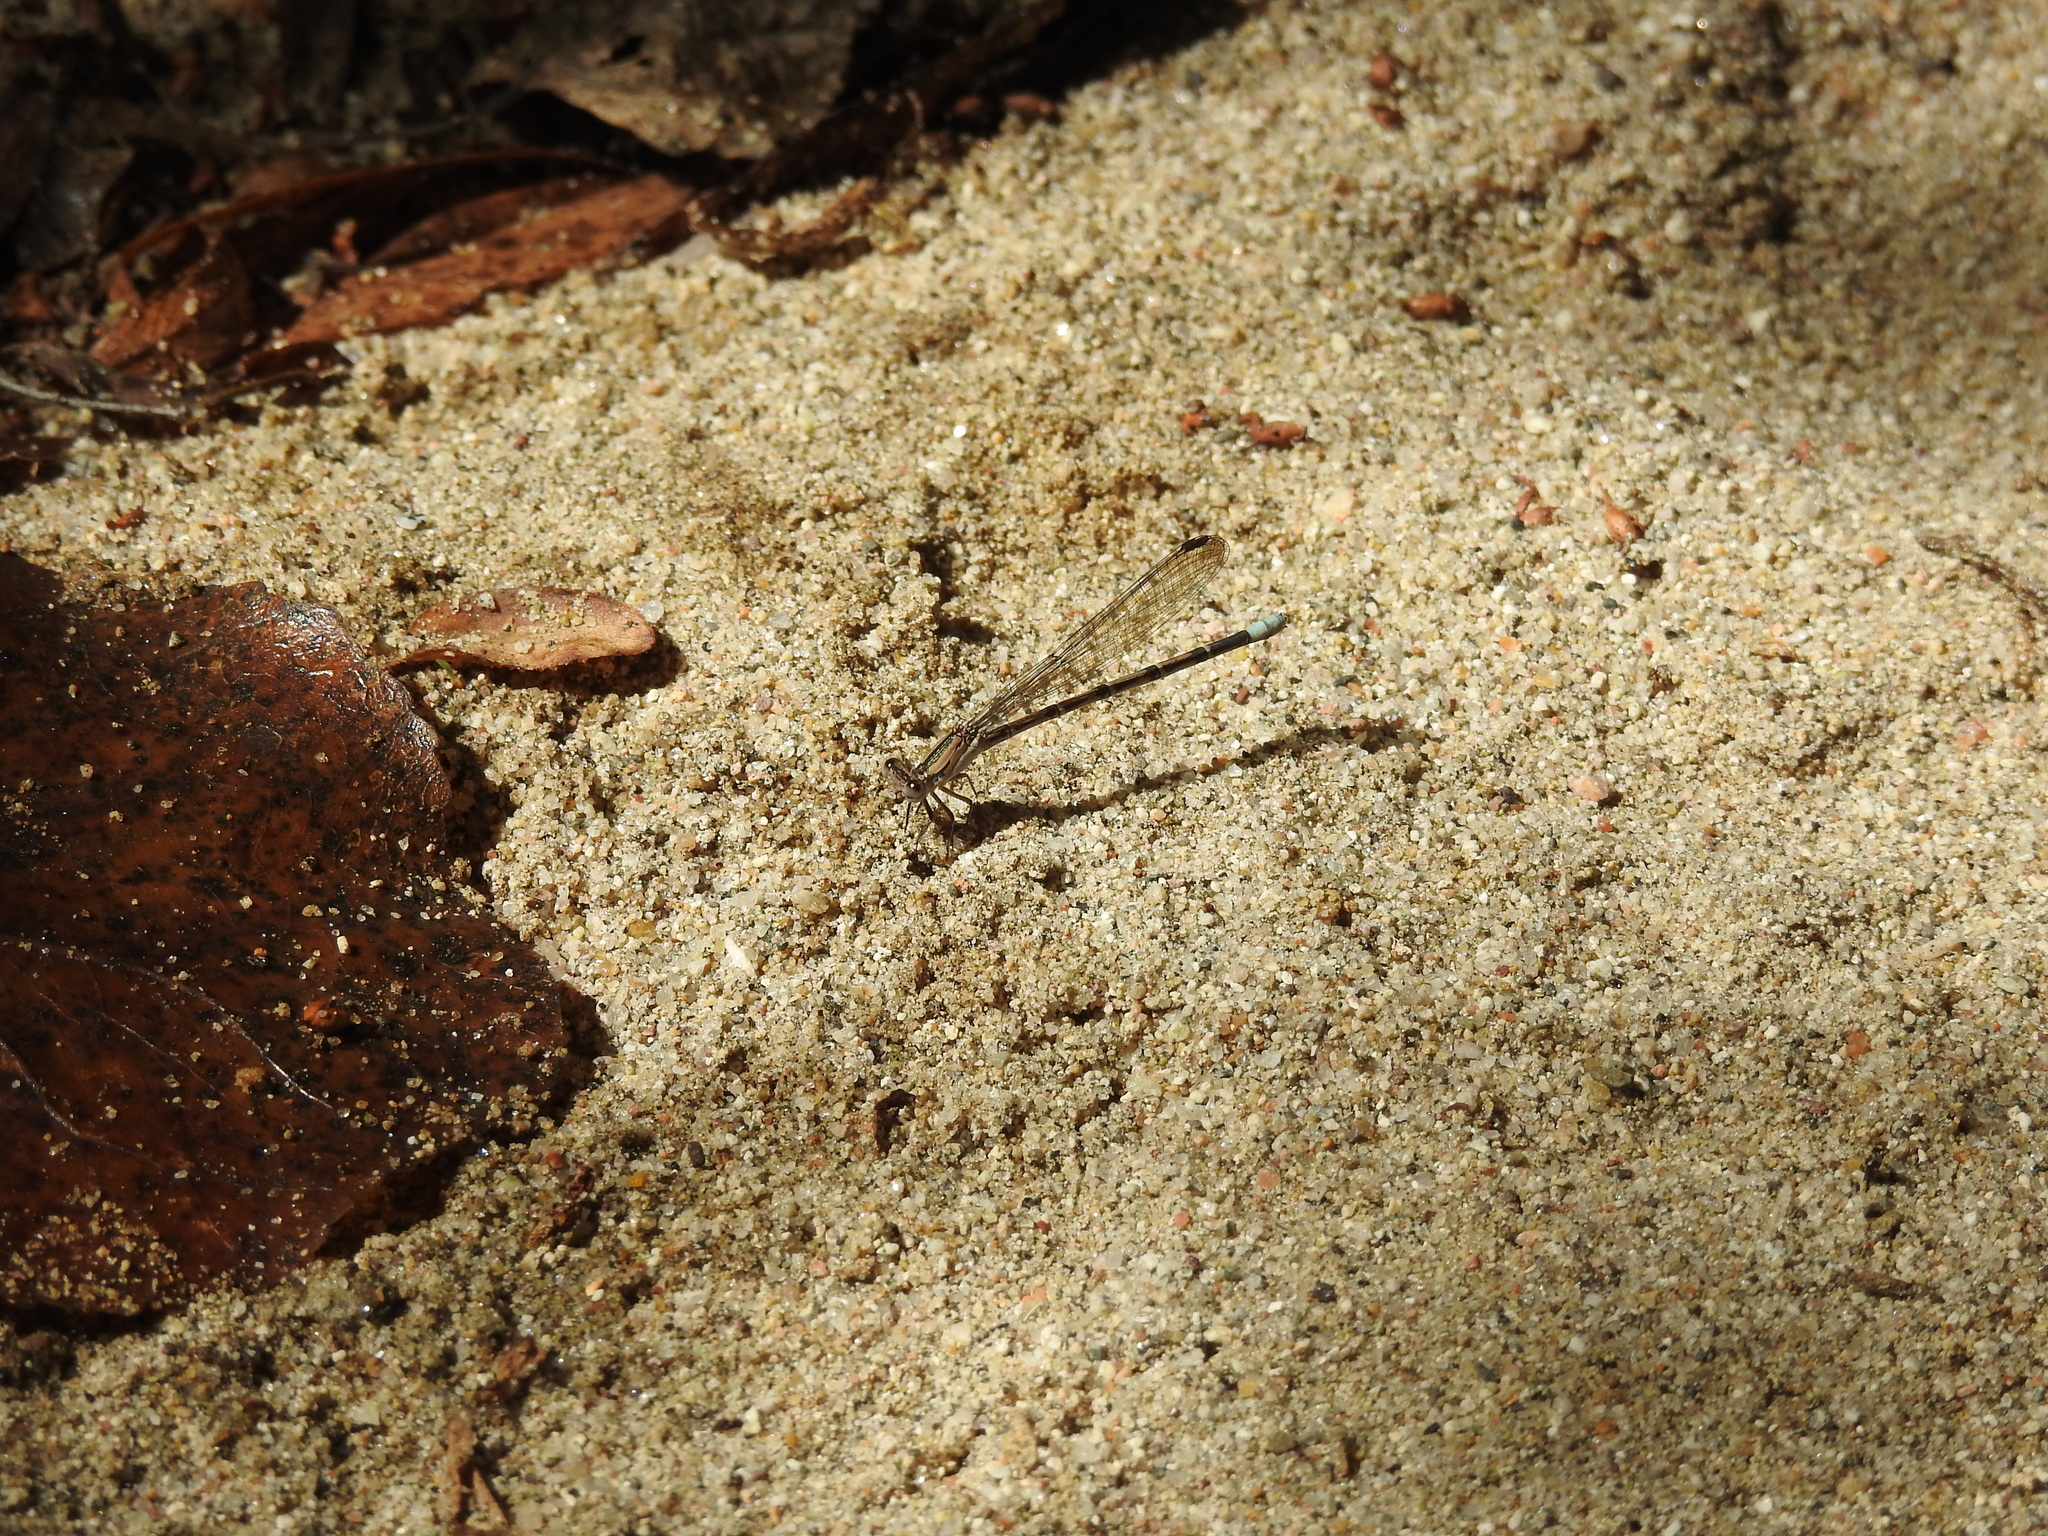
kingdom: Animalia
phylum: Arthropoda
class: Insecta
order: Odonata
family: Coenagrionidae
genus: Argia
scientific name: Argia funebris
